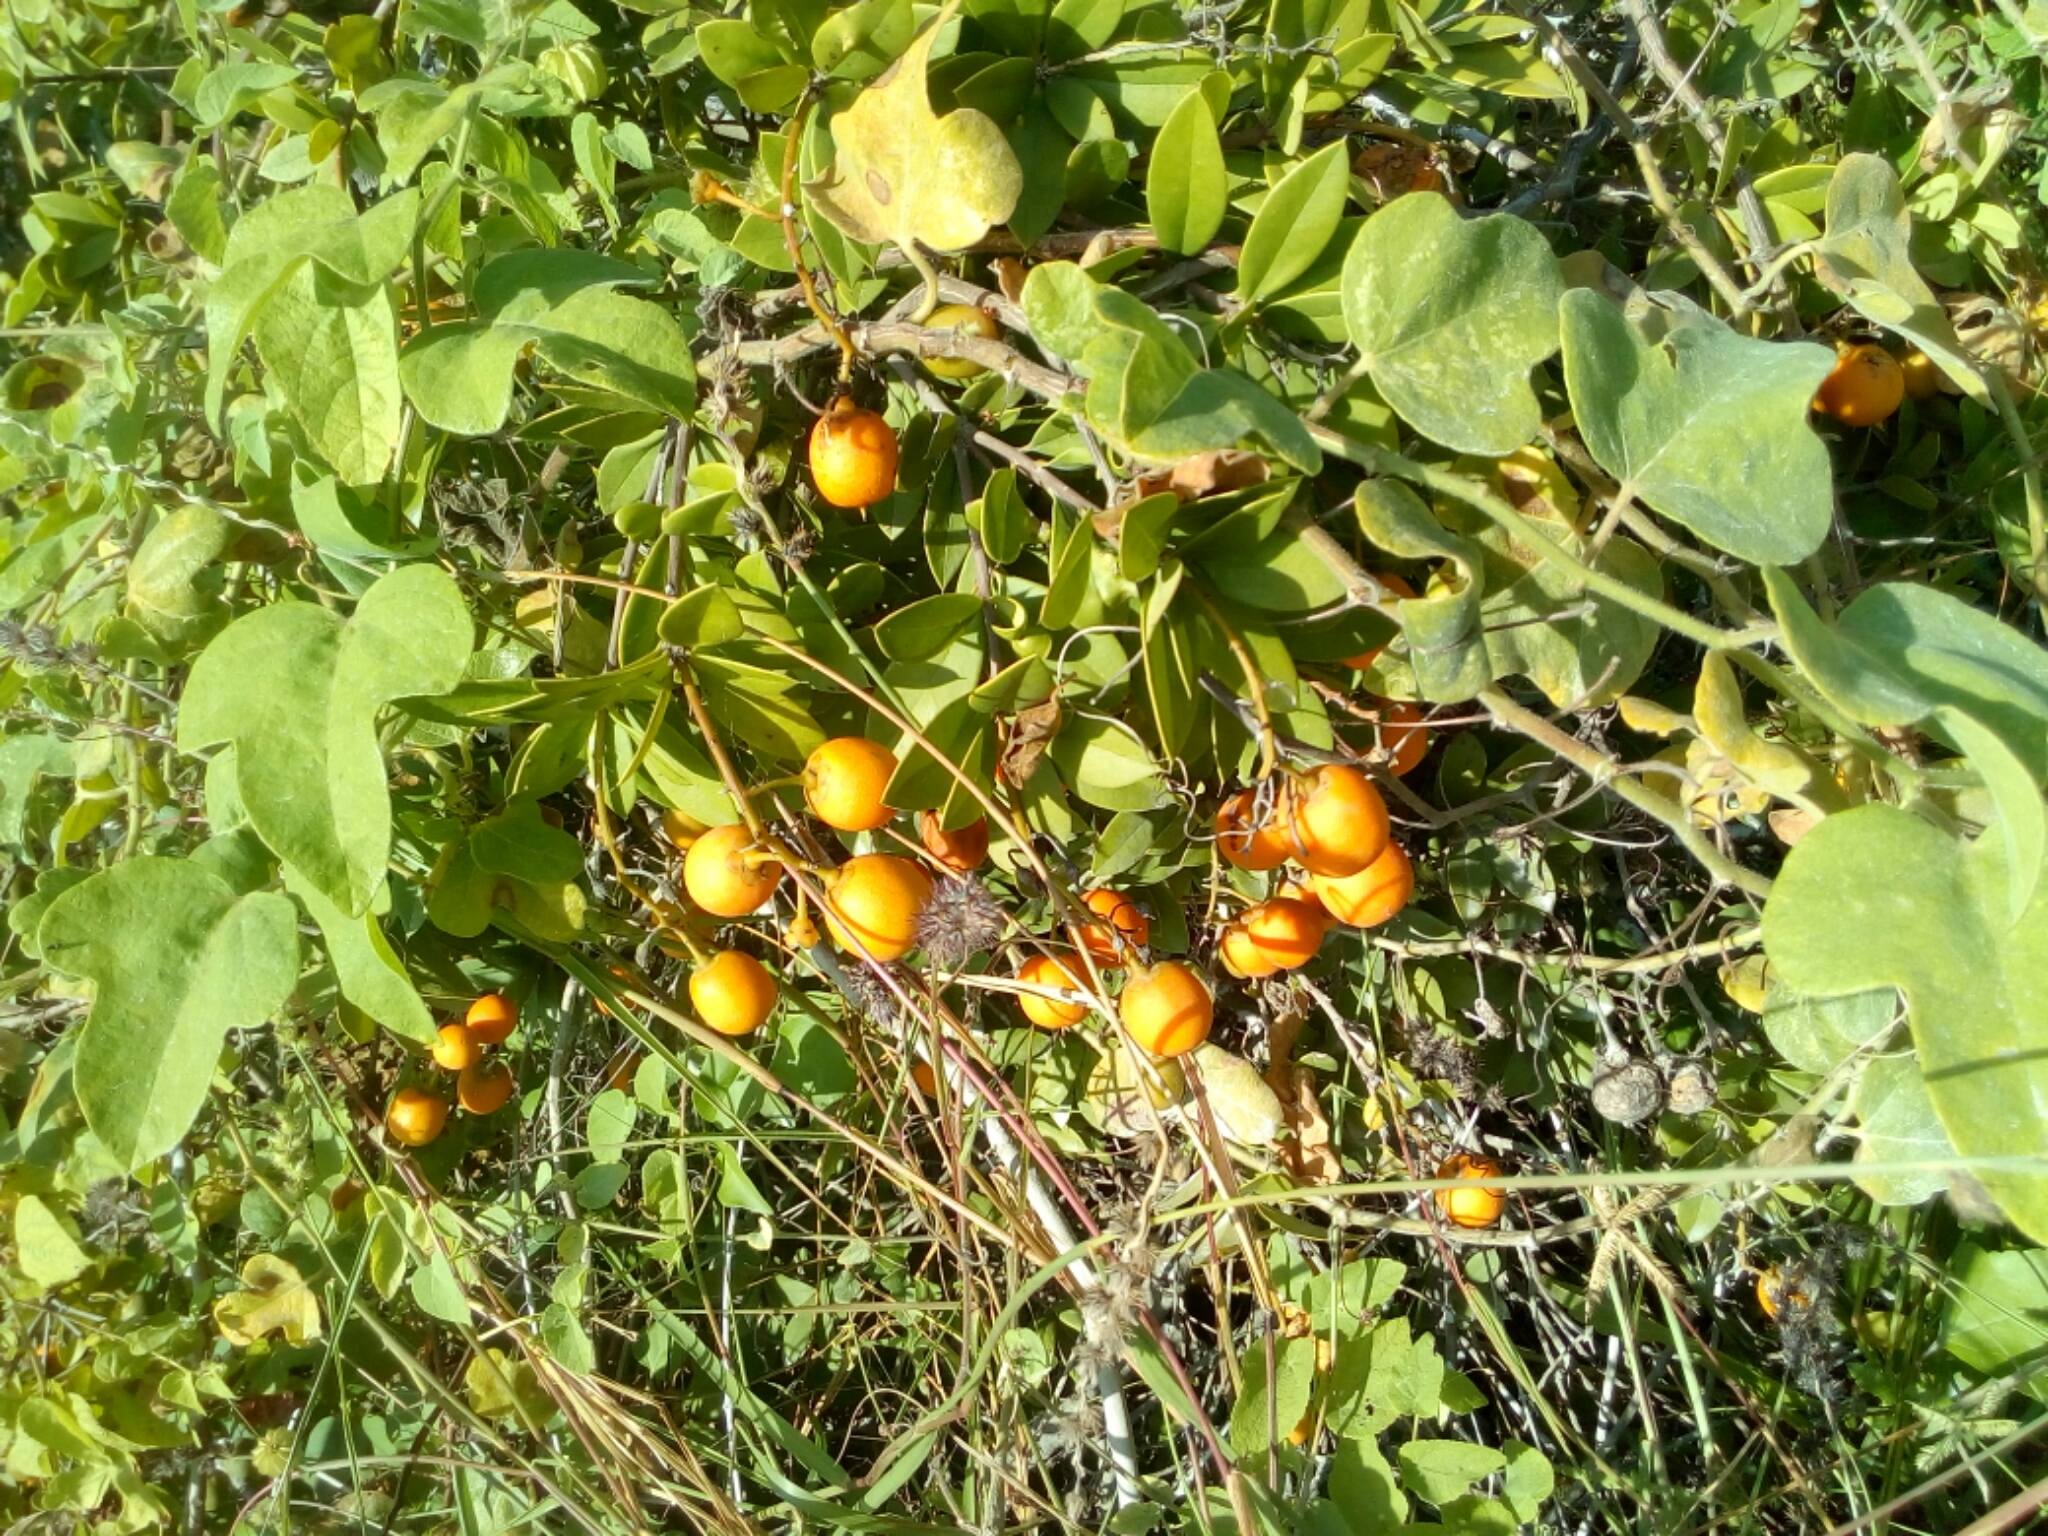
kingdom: Plantae
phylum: Tracheophyta
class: Magnoliopsida
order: Ericales
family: Primulaceae
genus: Bonellia
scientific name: Bonellia macrocarpa
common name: Primrose
